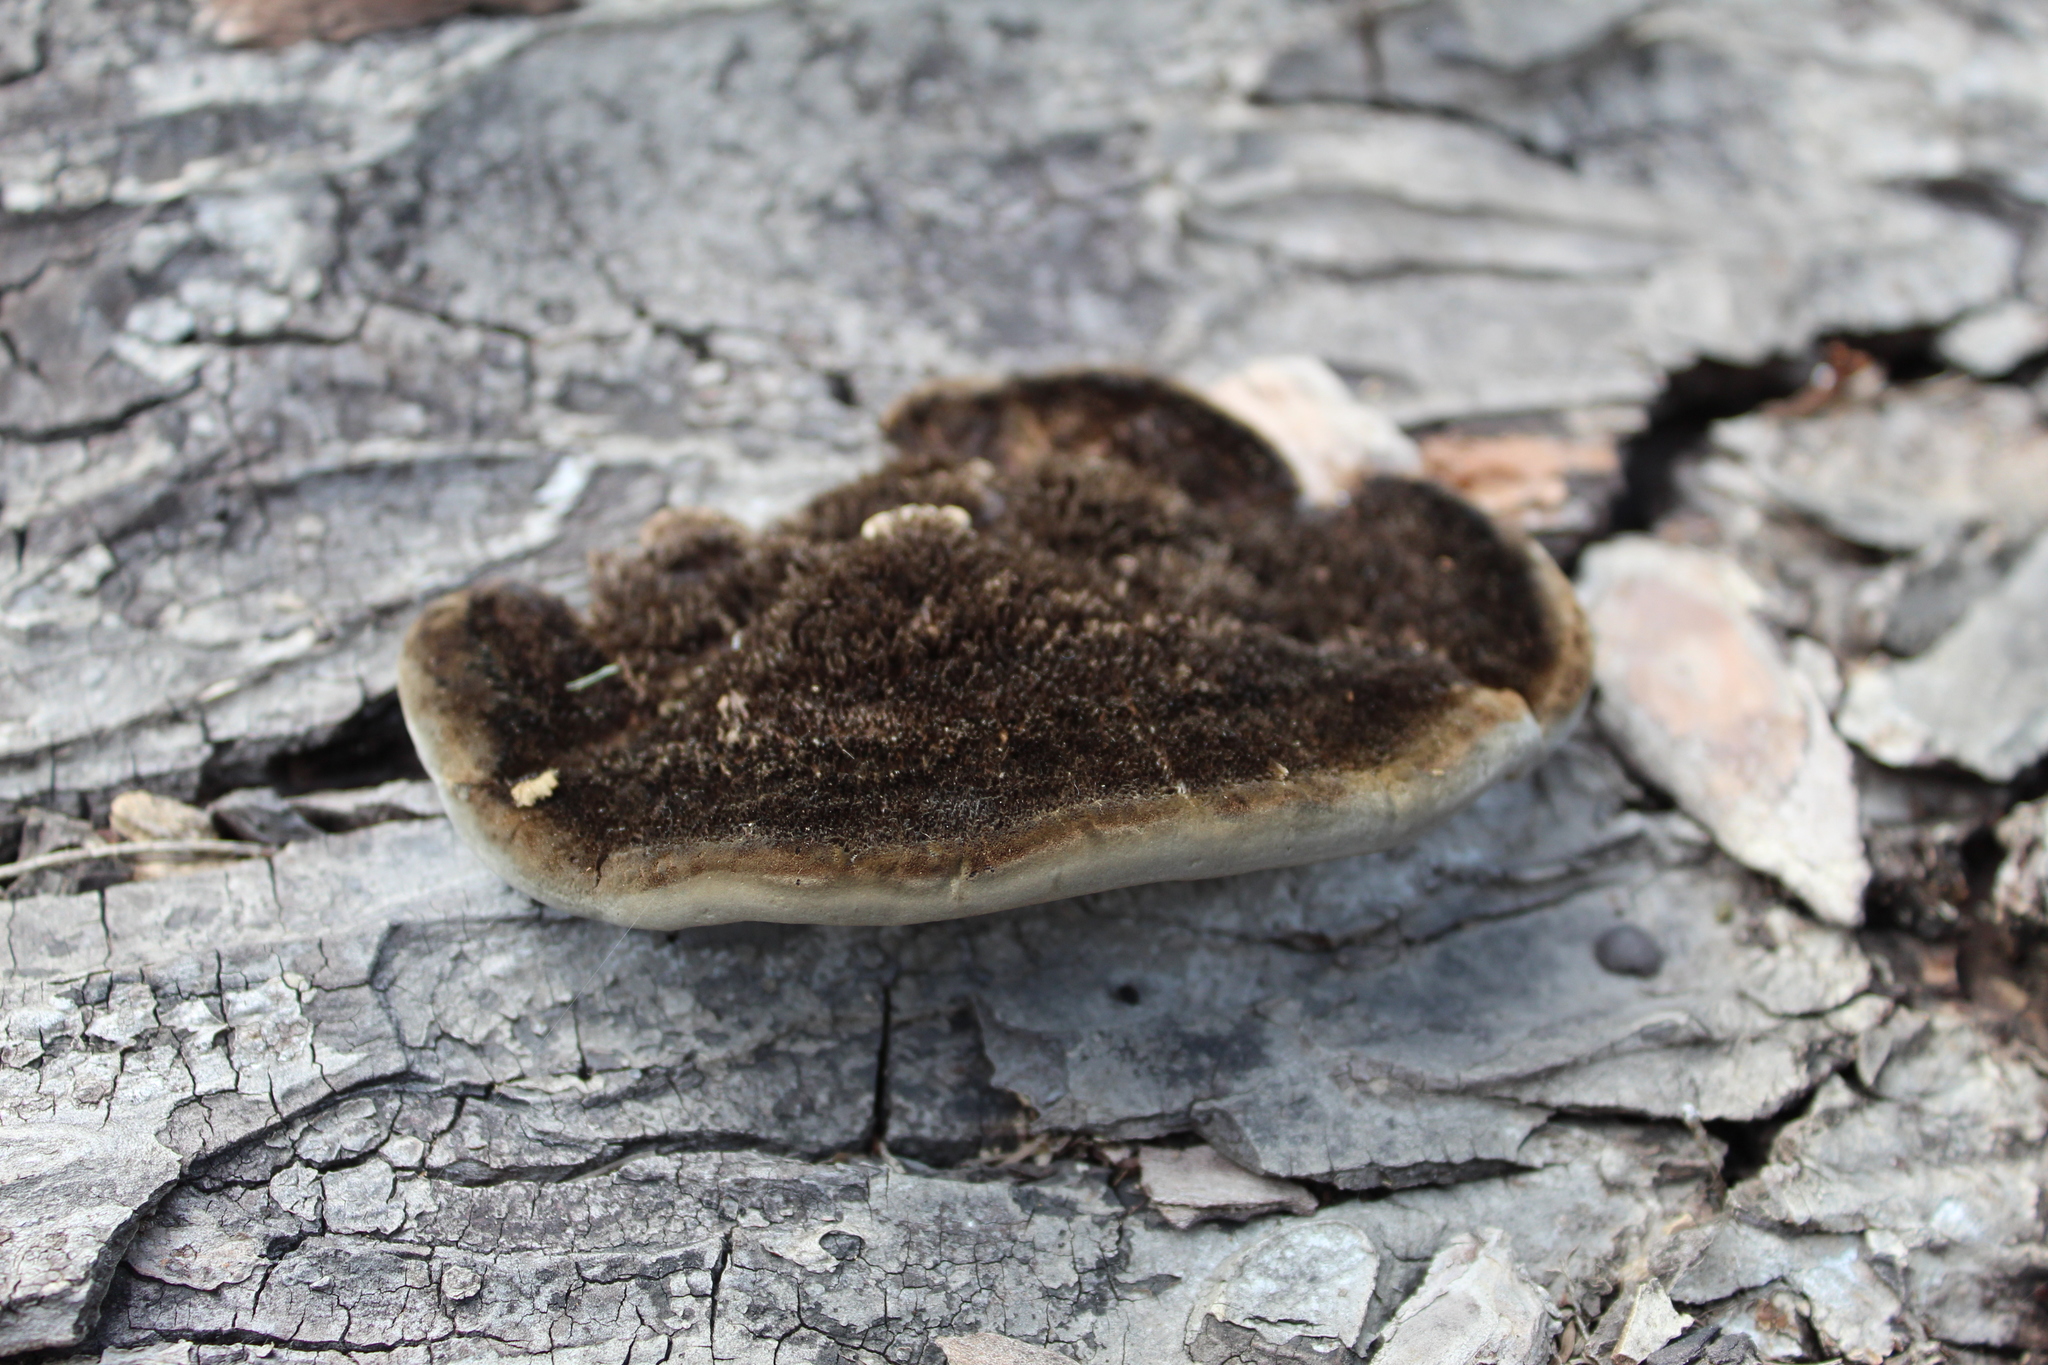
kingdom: Fungi
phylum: Basidiomycota
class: Agaricomycetes
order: Polyporales
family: Cerrenaceae
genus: Cerrena
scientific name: Cerrena hydnoides
